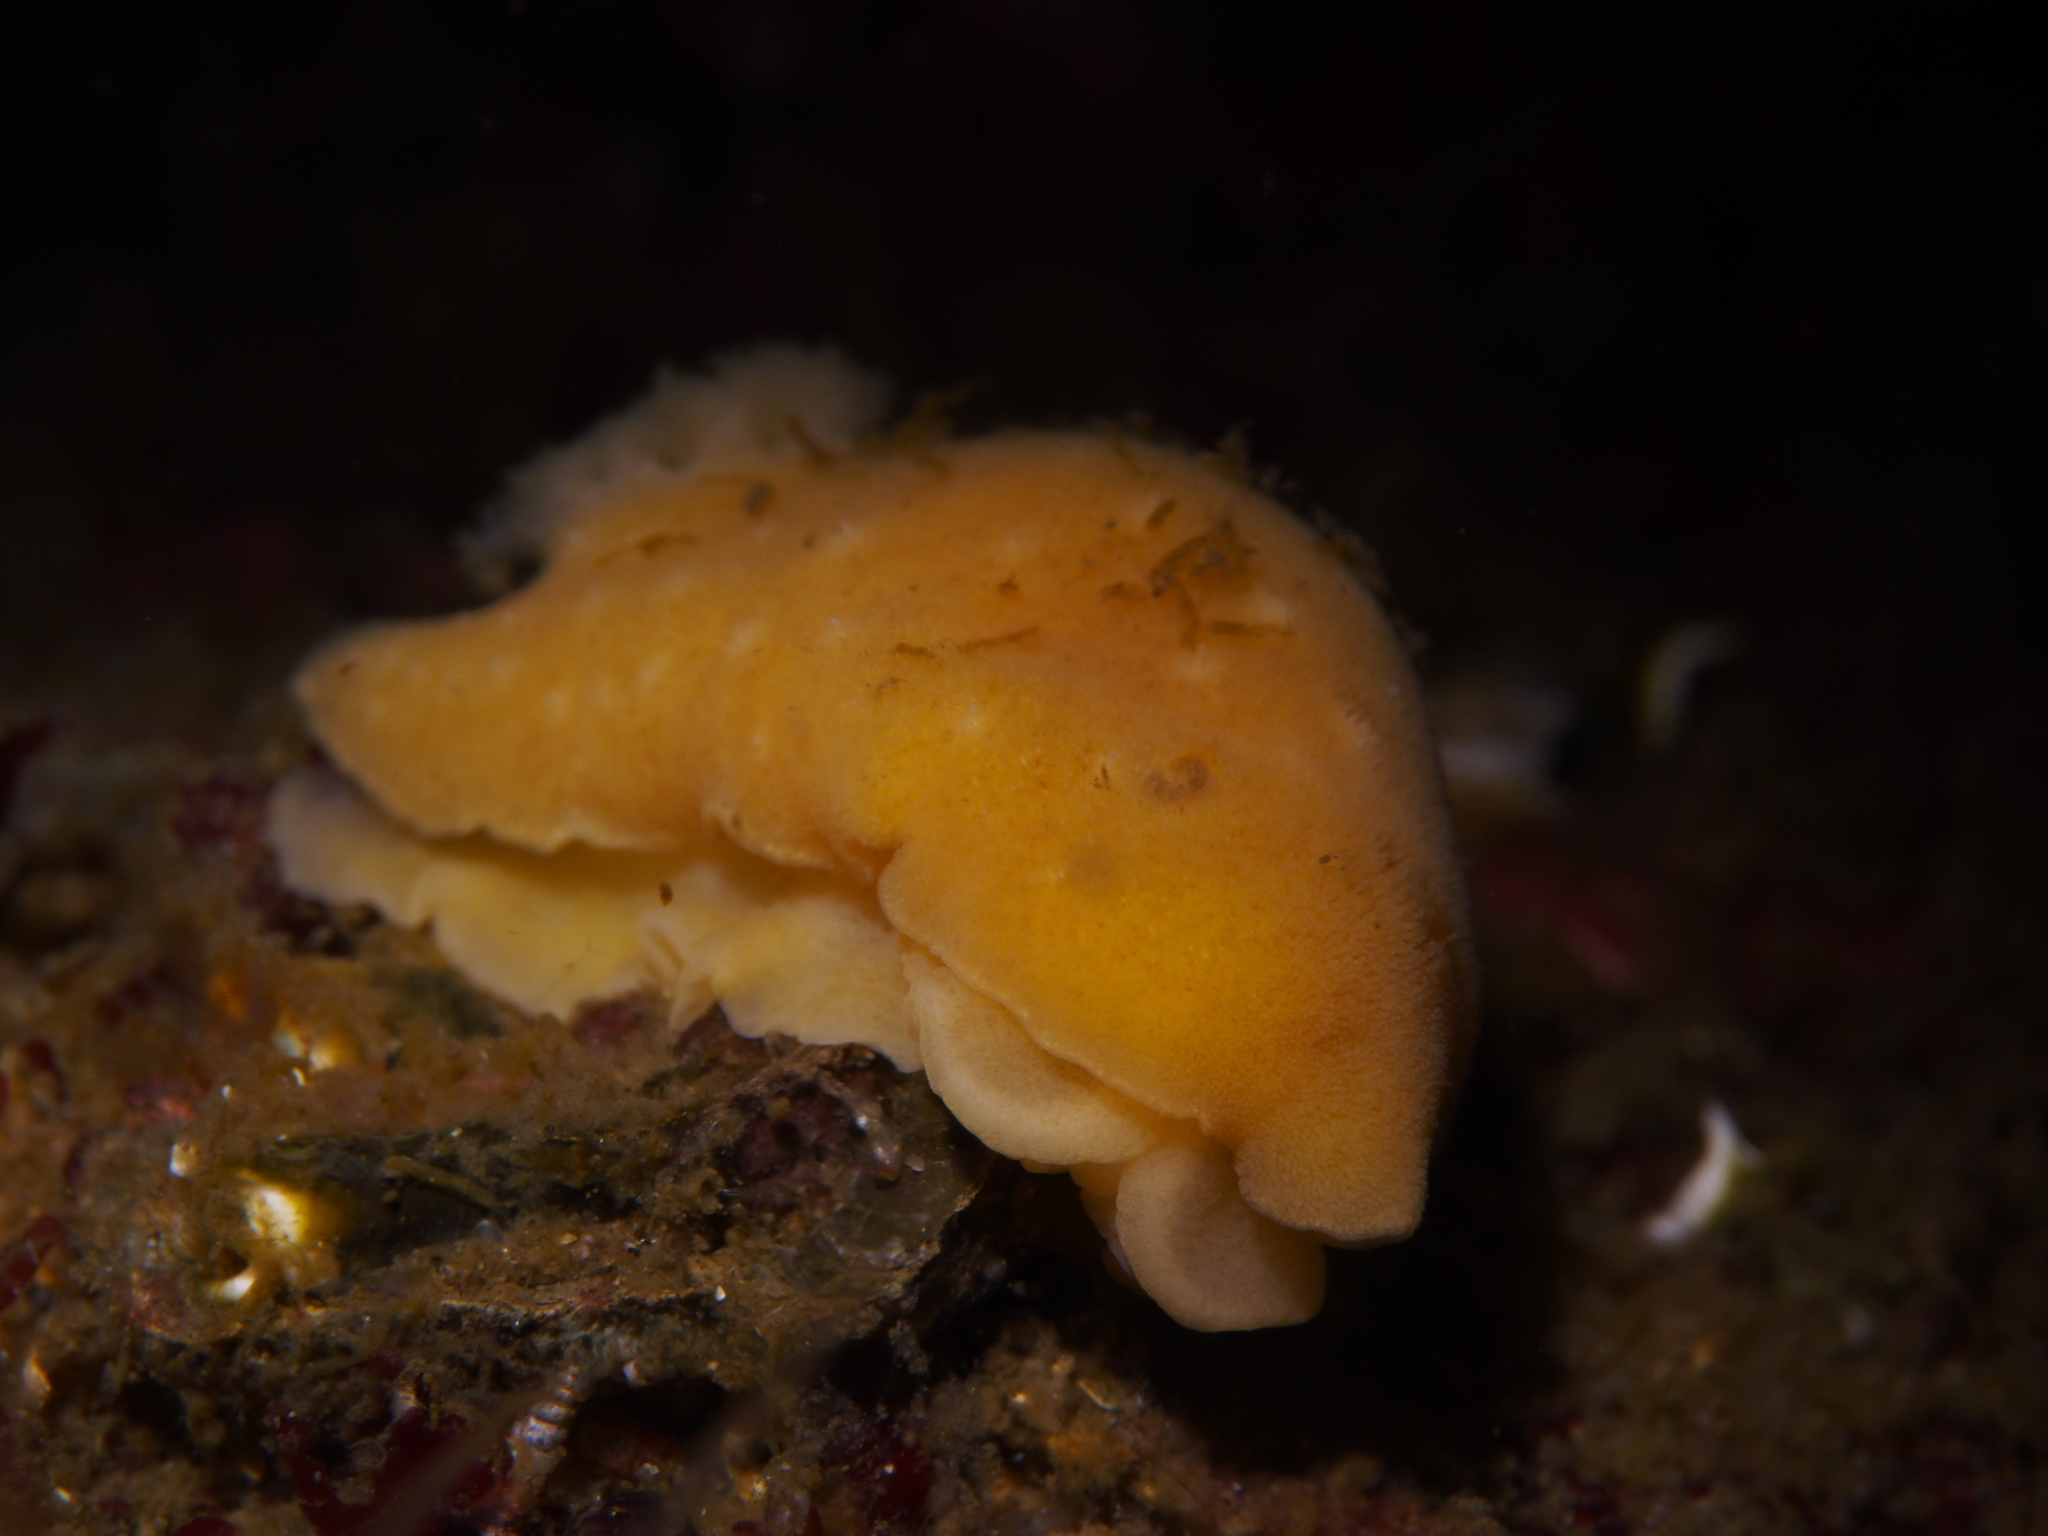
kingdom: Animalia
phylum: Mollusca
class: Gastropoda
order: Nudibranchia
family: Discodorididae
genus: Jorunna
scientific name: Jorunna tomentosa
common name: Grey sea slug
